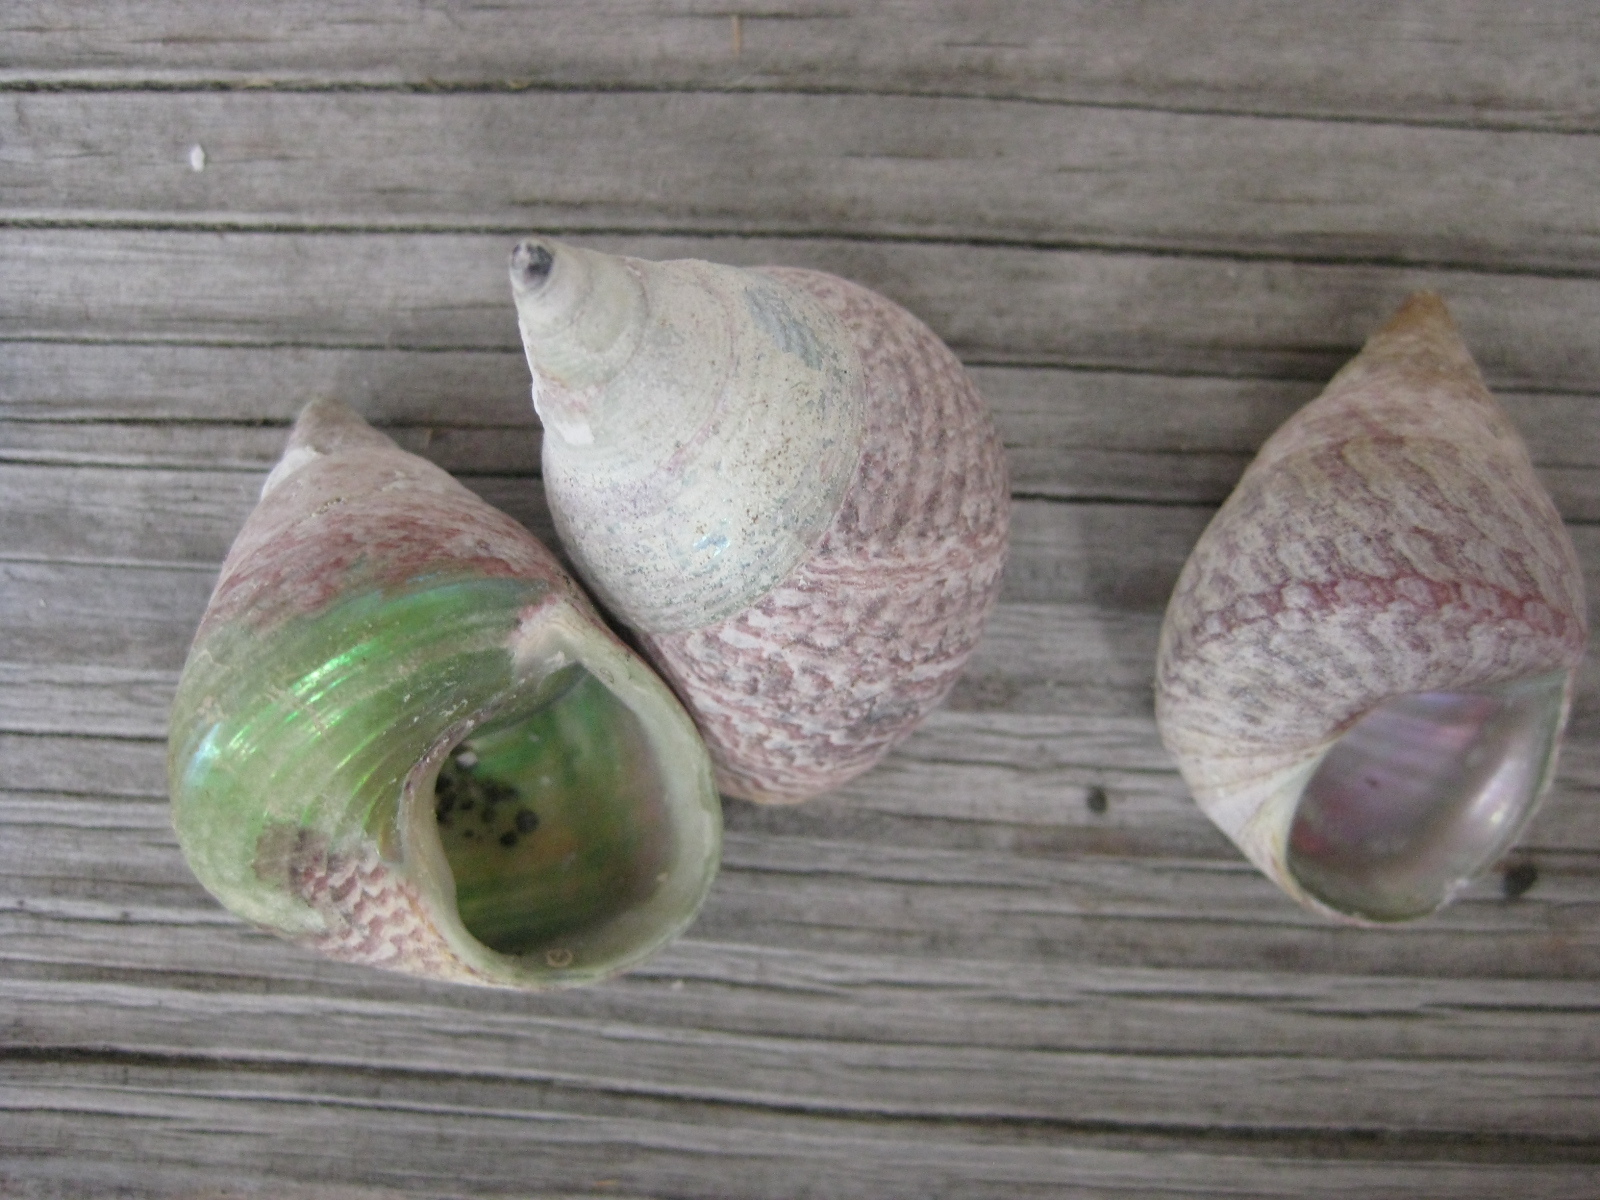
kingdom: Animalia
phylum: Mollusca
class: Gastropoda
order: Trochida
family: Trochidae
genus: Cantharidus
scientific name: Cantharidus opalus
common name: Opal jewel topsnail
